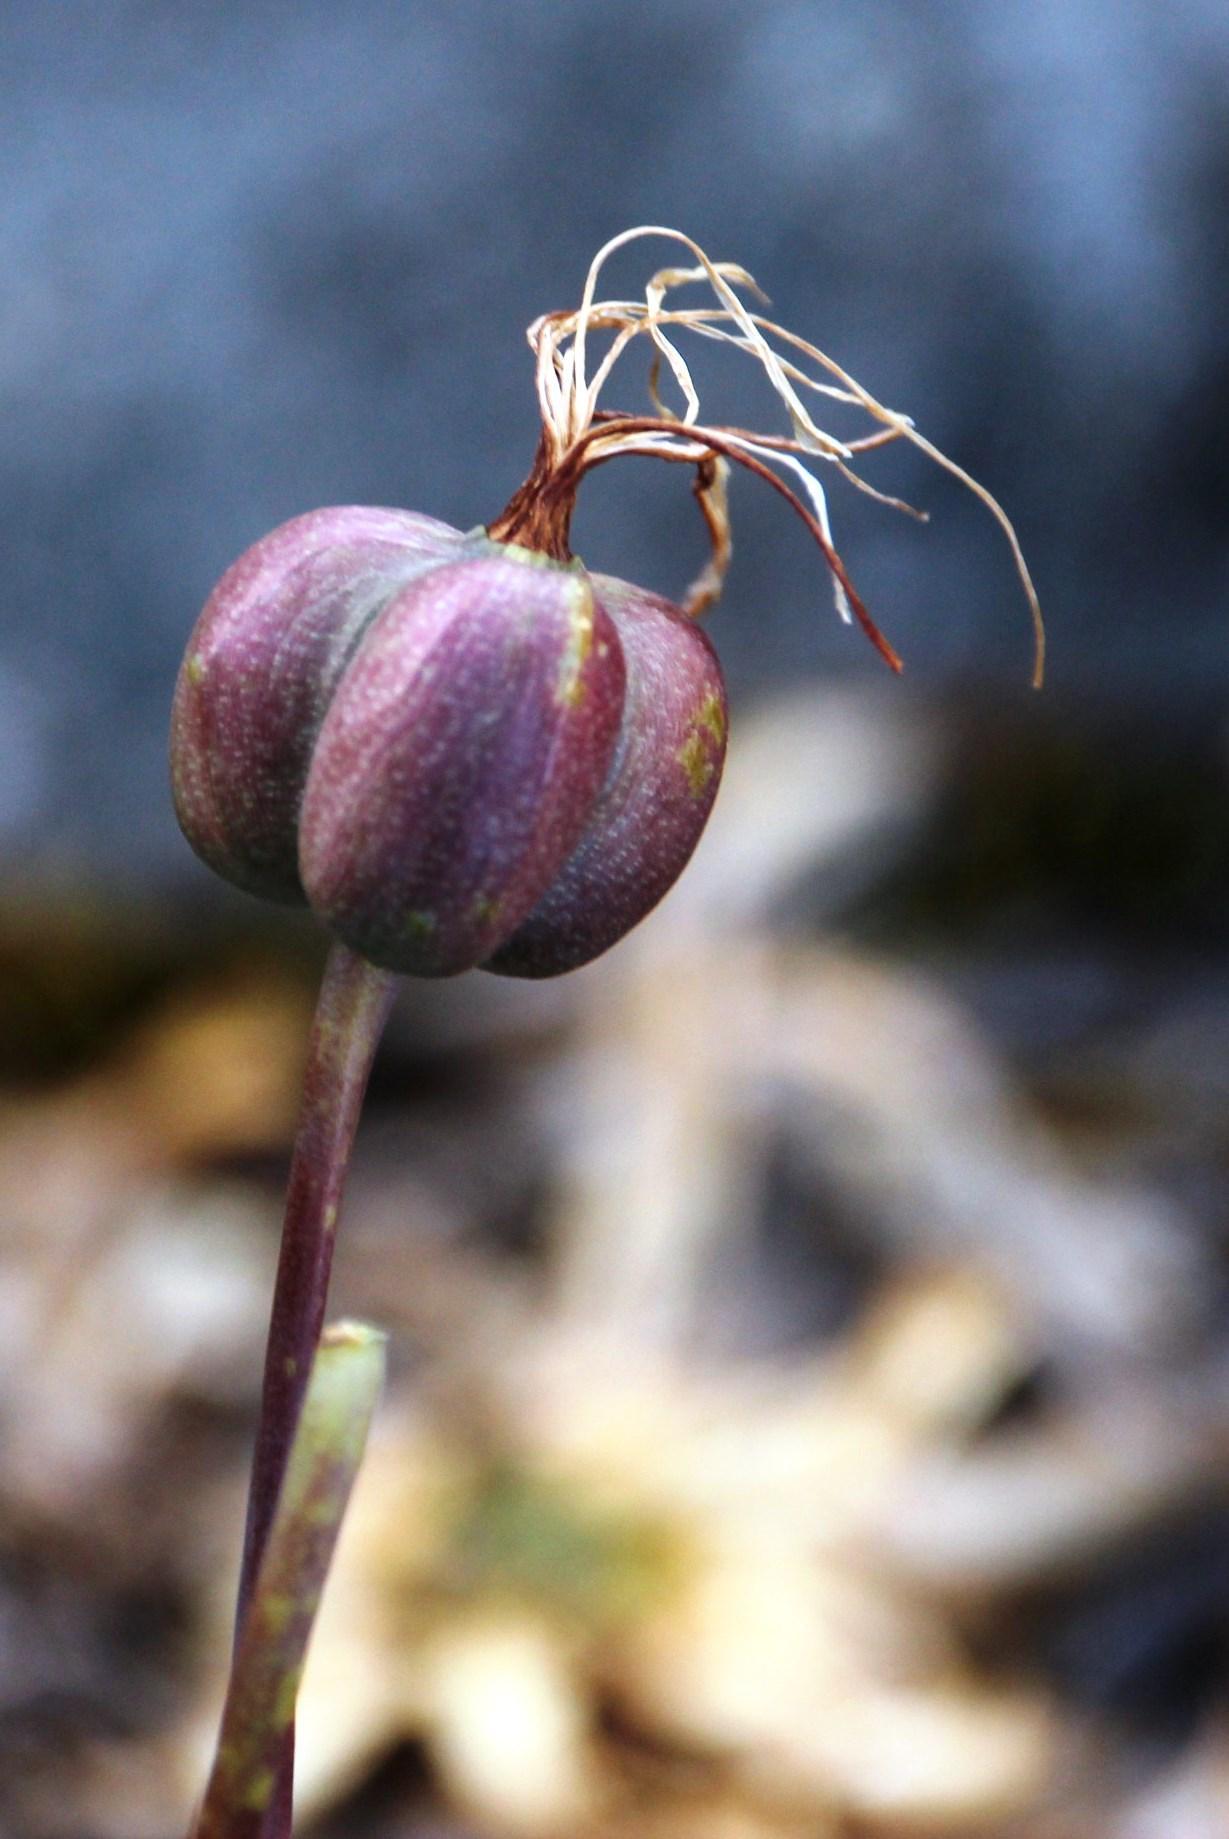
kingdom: Plantae
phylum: Tracheophyta
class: Liliopsida
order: Asparagales
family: Amaryllidaceae
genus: Eustephia
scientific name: Eustephia coccinea
